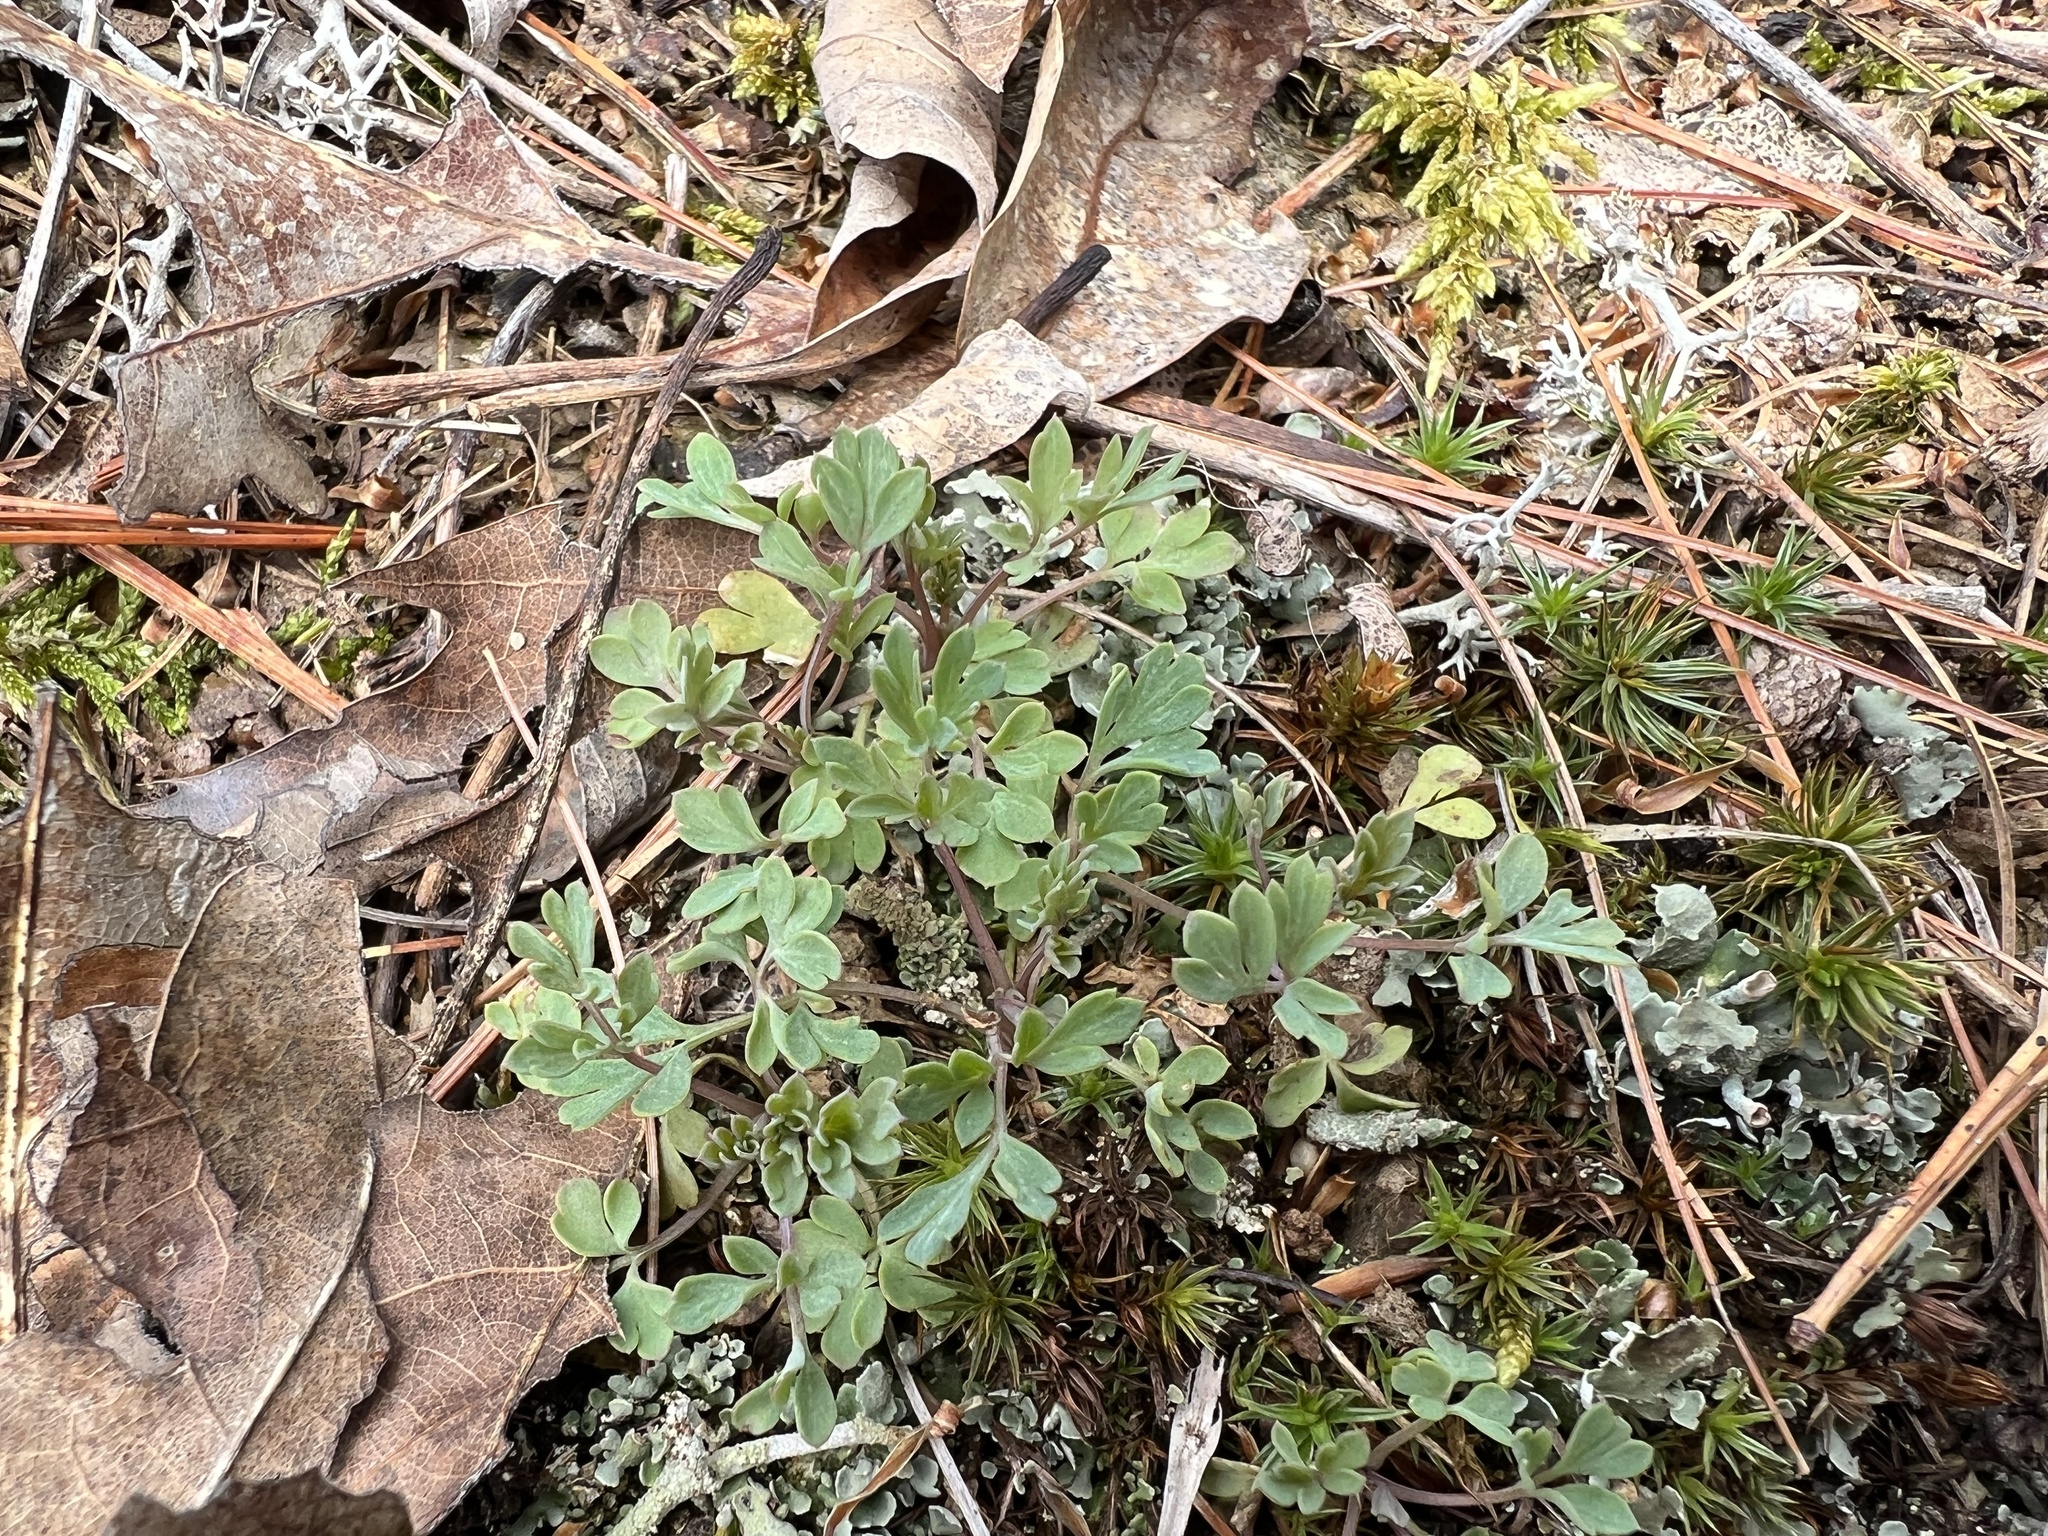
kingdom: Plantae
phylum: Tracheophyta
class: Magnoliopsida
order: Ranunculales
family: Papaveraceae
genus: Capnoides
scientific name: Capnoides sempervirens
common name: Rock harlequin
